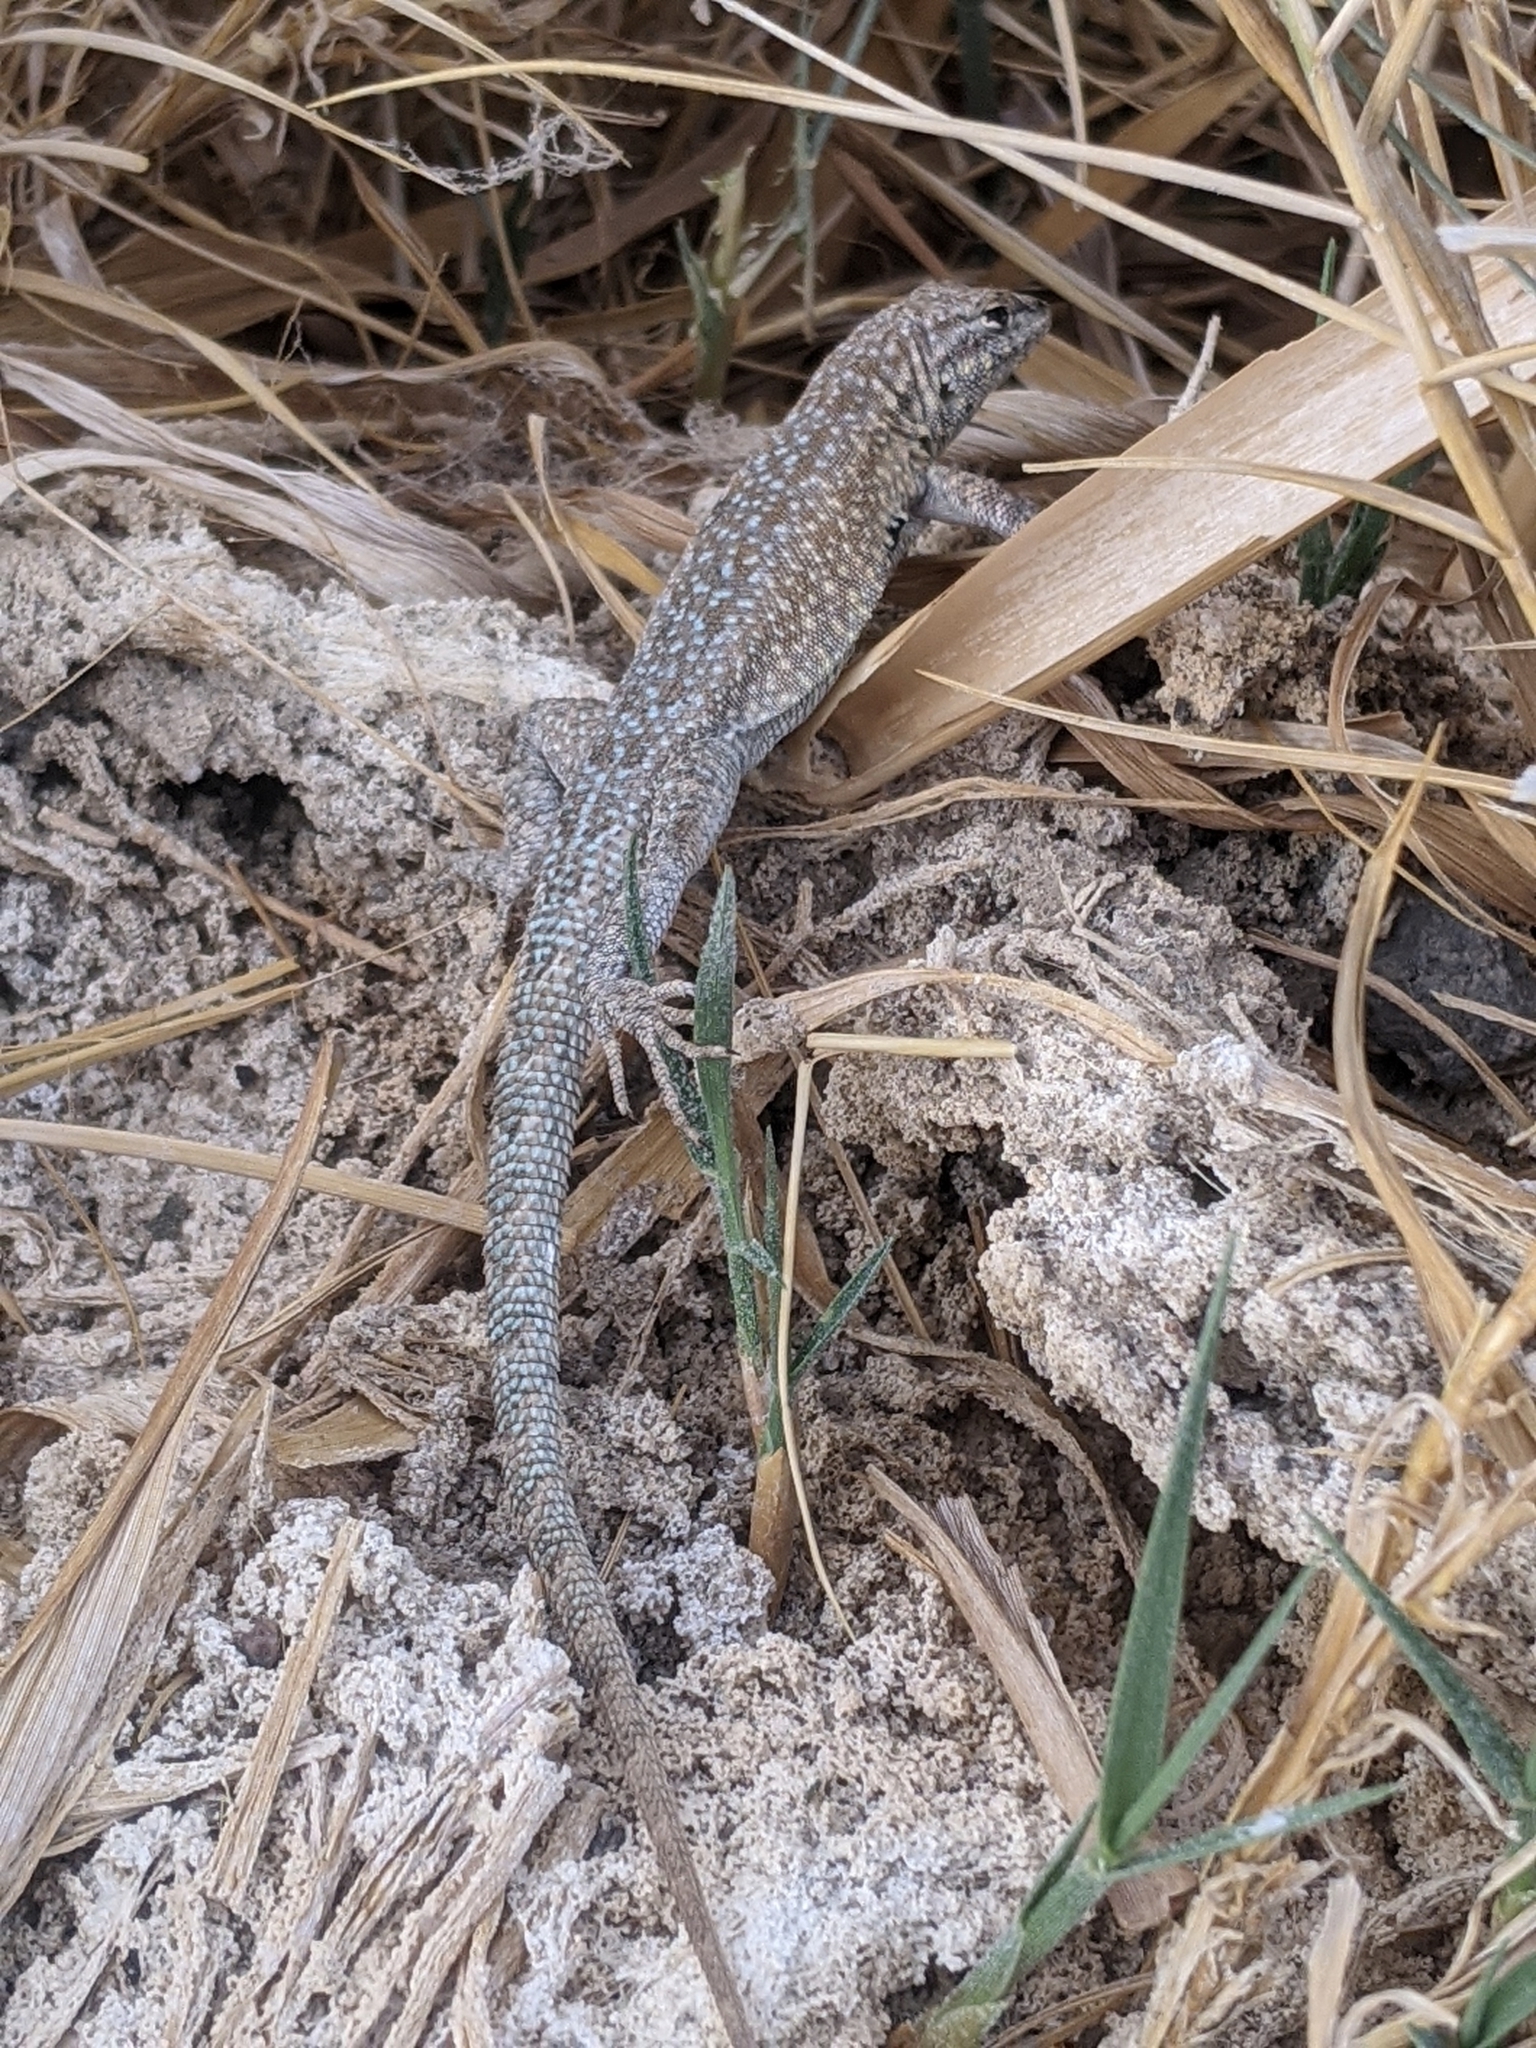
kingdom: Animalia
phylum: Chordata
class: Squamata
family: Phrynosomatidae
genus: Uta
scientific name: Uta stansburiana
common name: Side-blotched lizard
